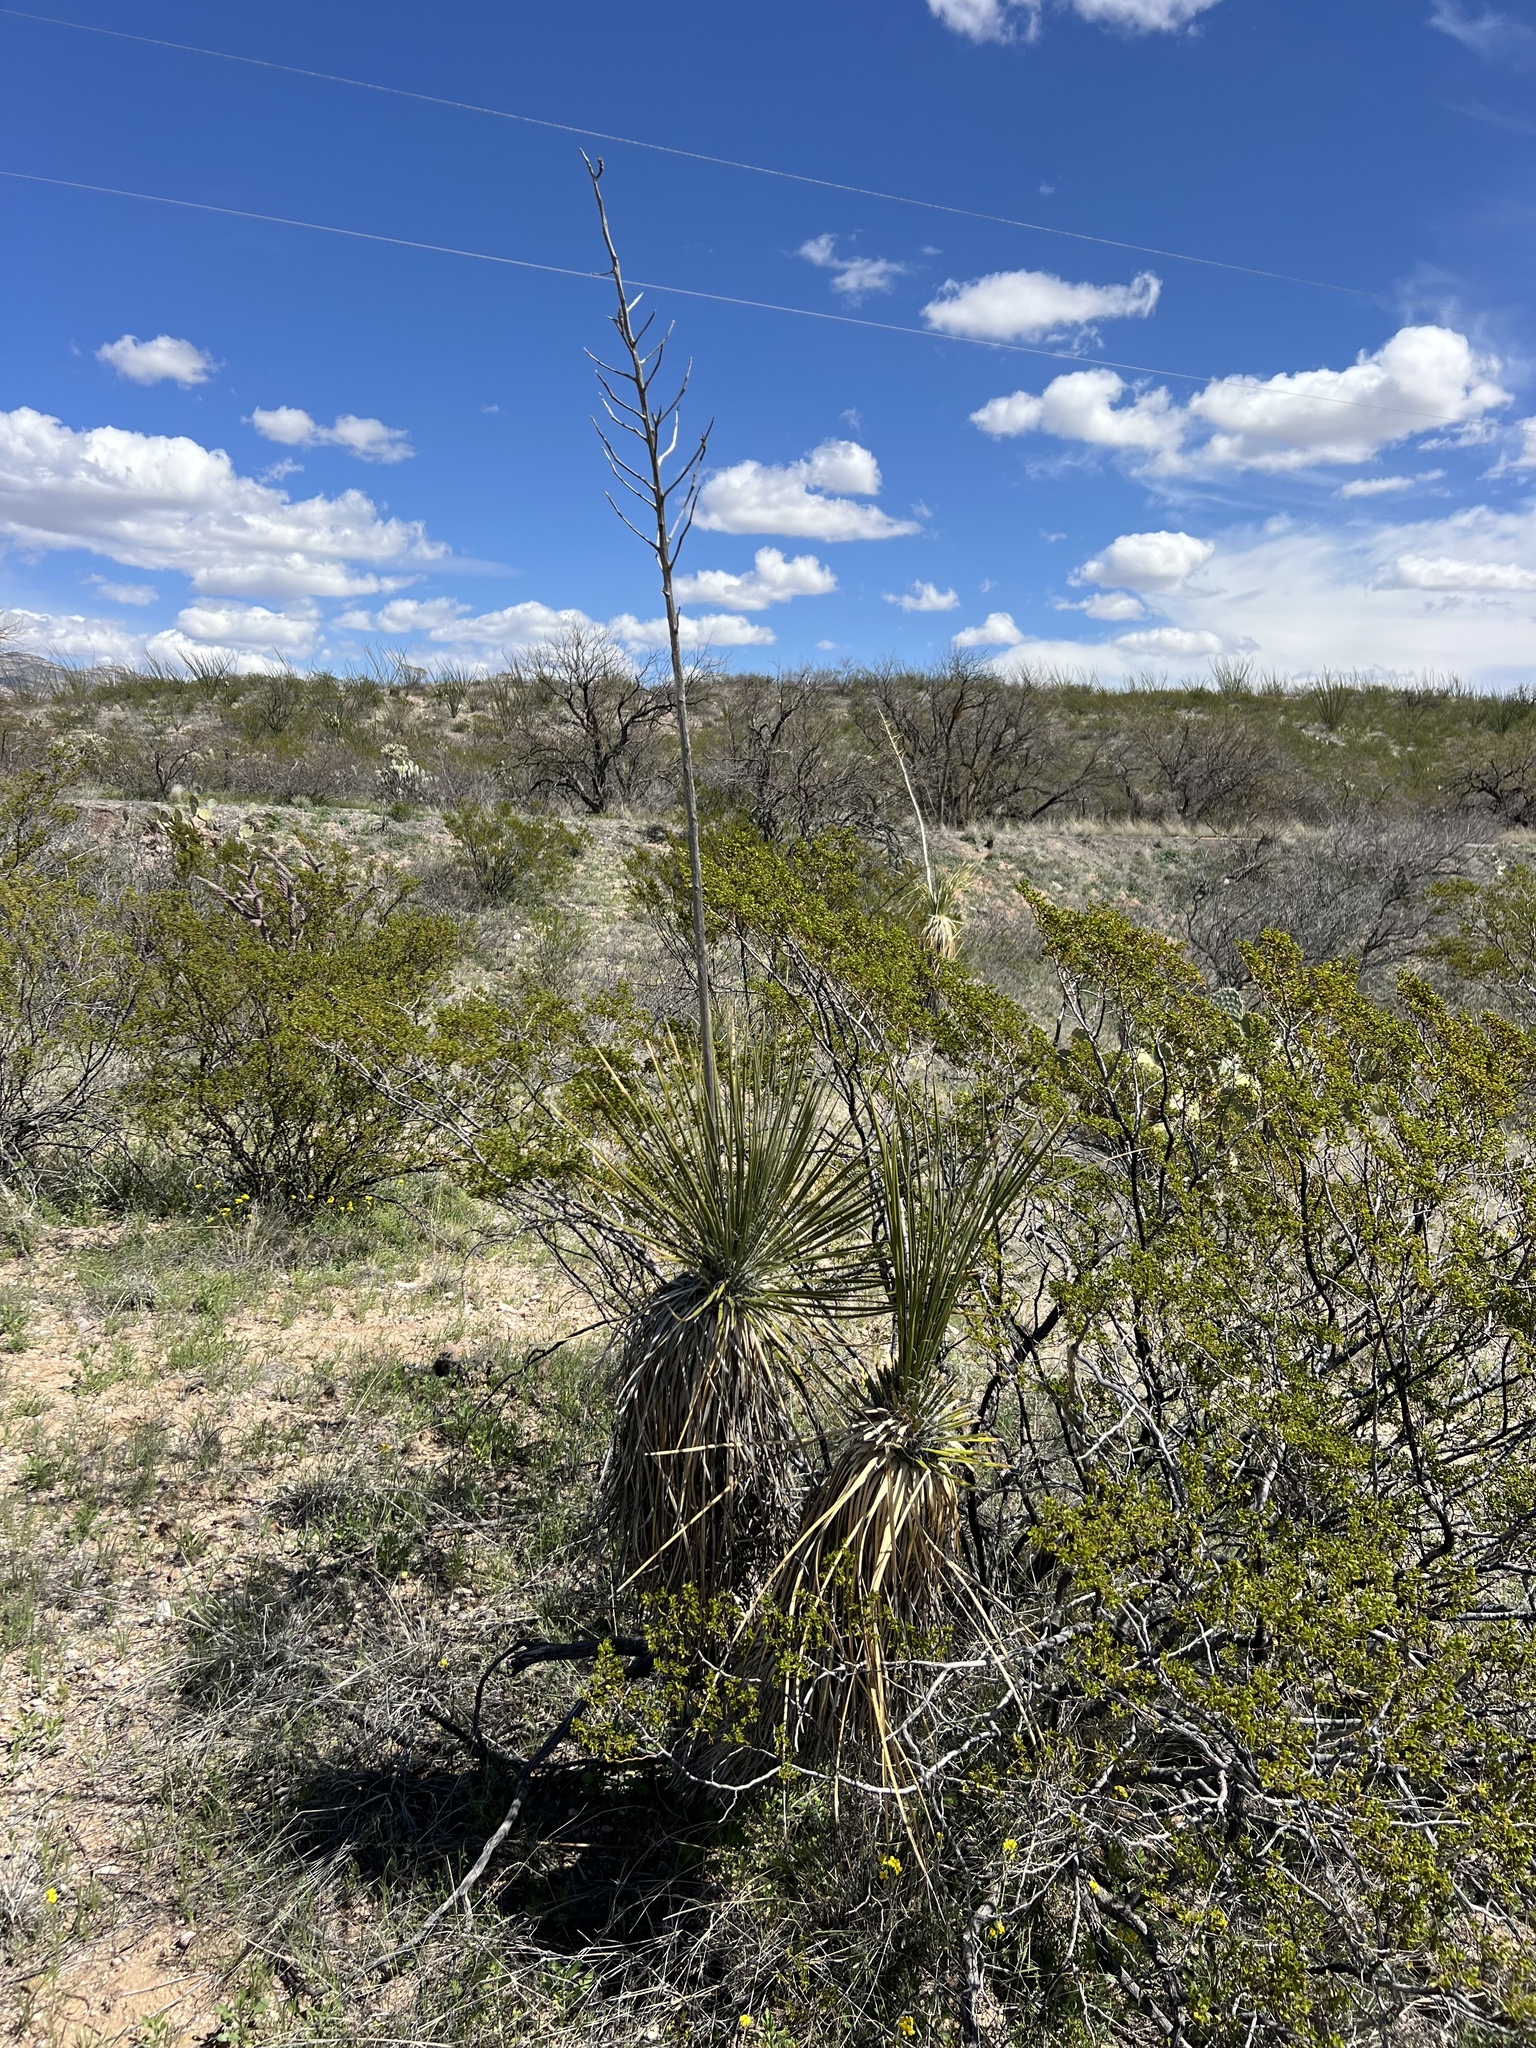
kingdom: Plantae
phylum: Tracheophyta
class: Liliopsida
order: Asparagales
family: Asparagaceae
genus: Yucca
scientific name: Yucca elata
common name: Palmella
